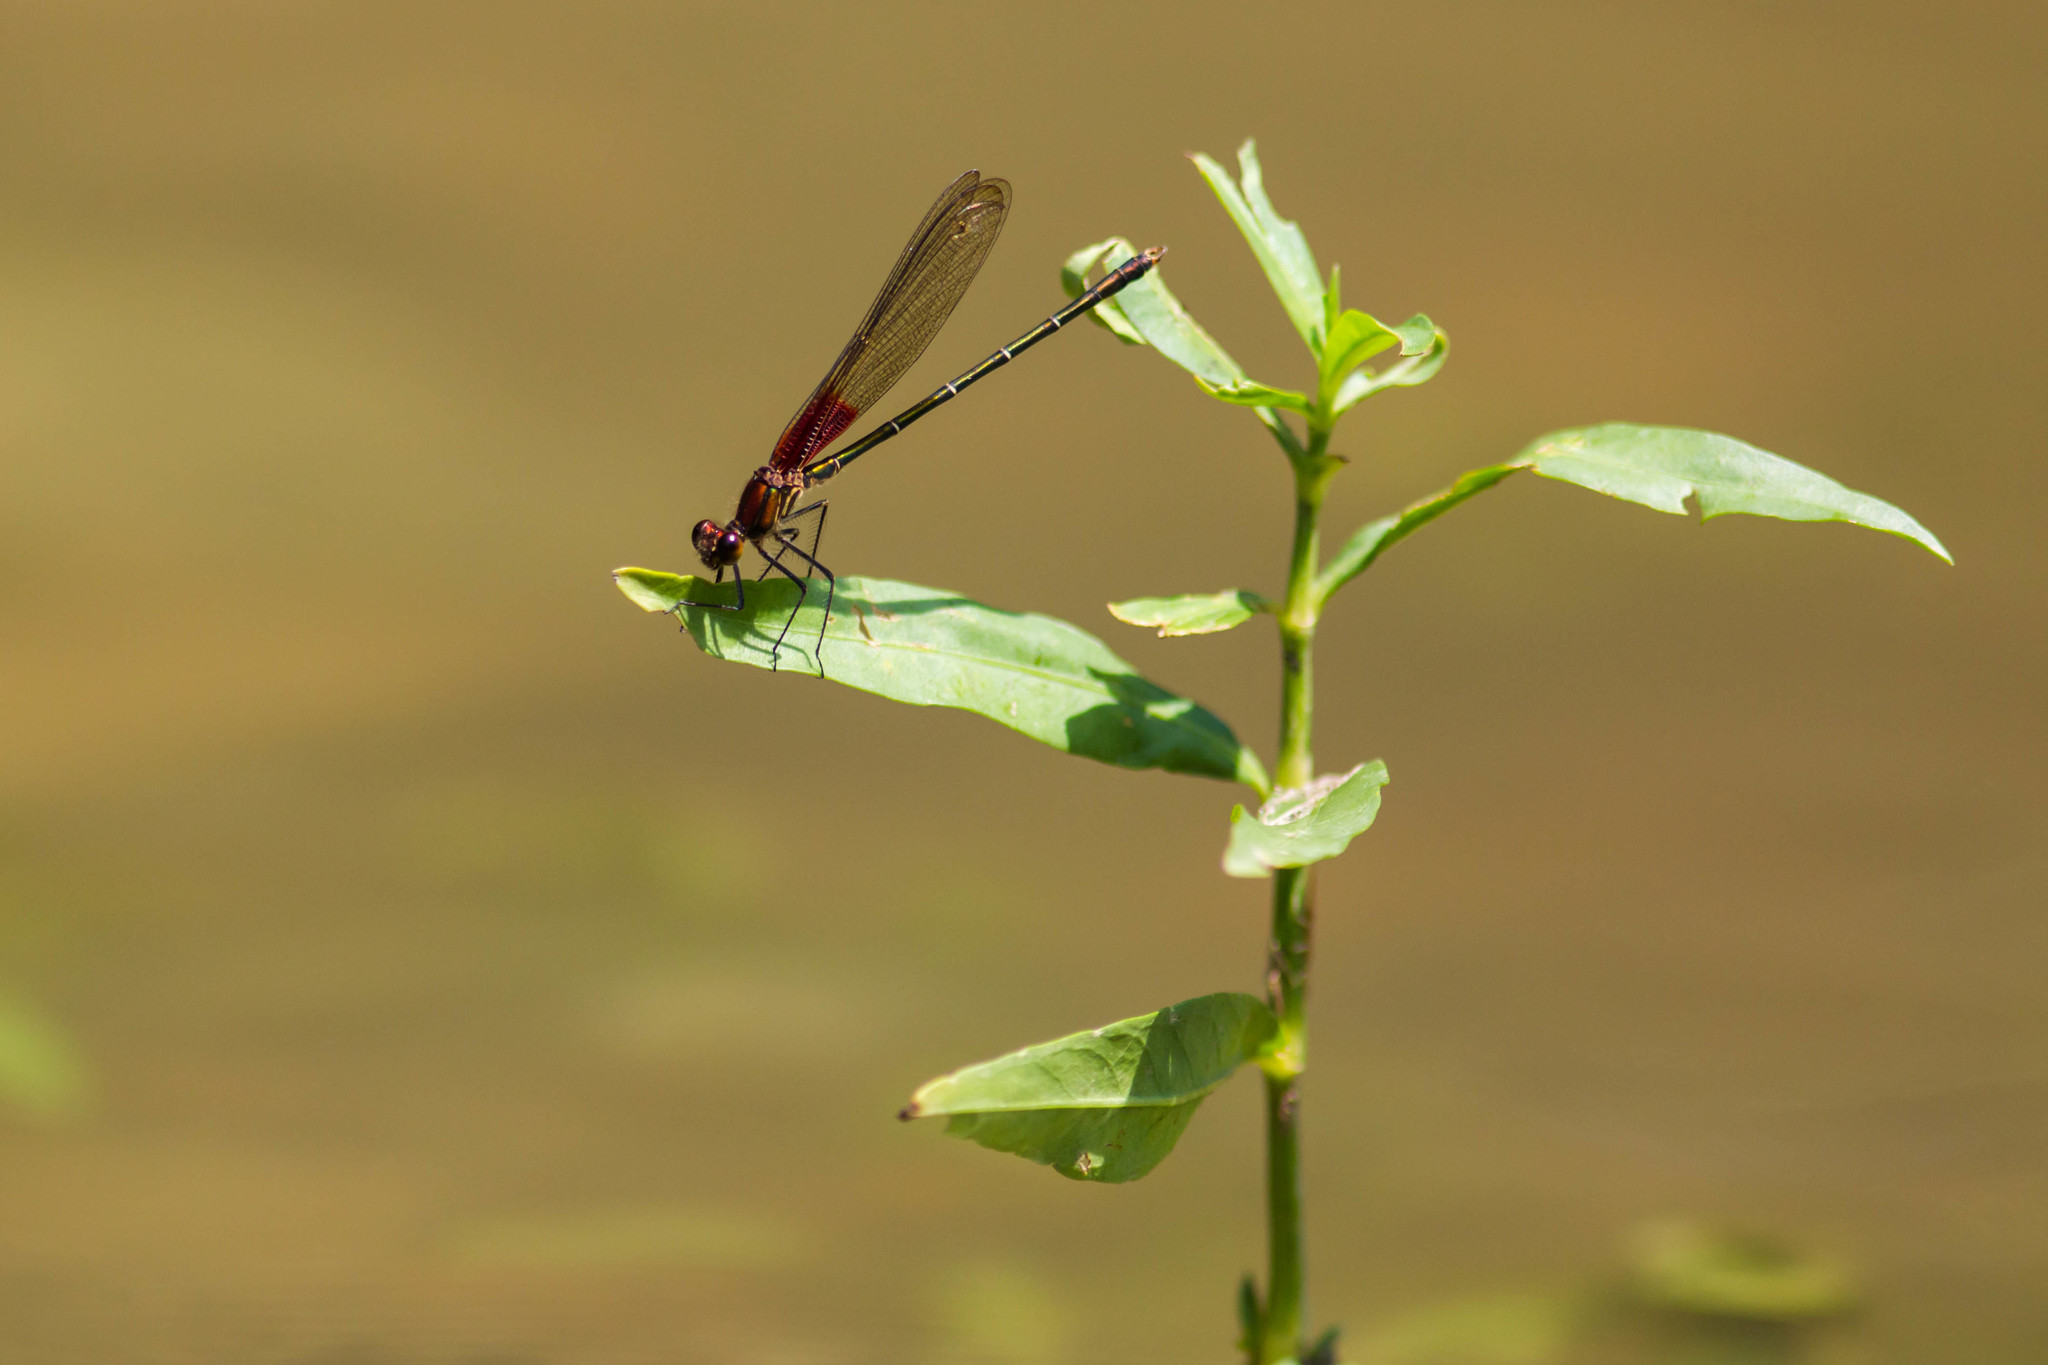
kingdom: Animalia
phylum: Arthropoda
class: Insecta
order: Odonata
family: Calopterygidae
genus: Hetaerina
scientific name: Hetaerina americana
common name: American rubyspot
